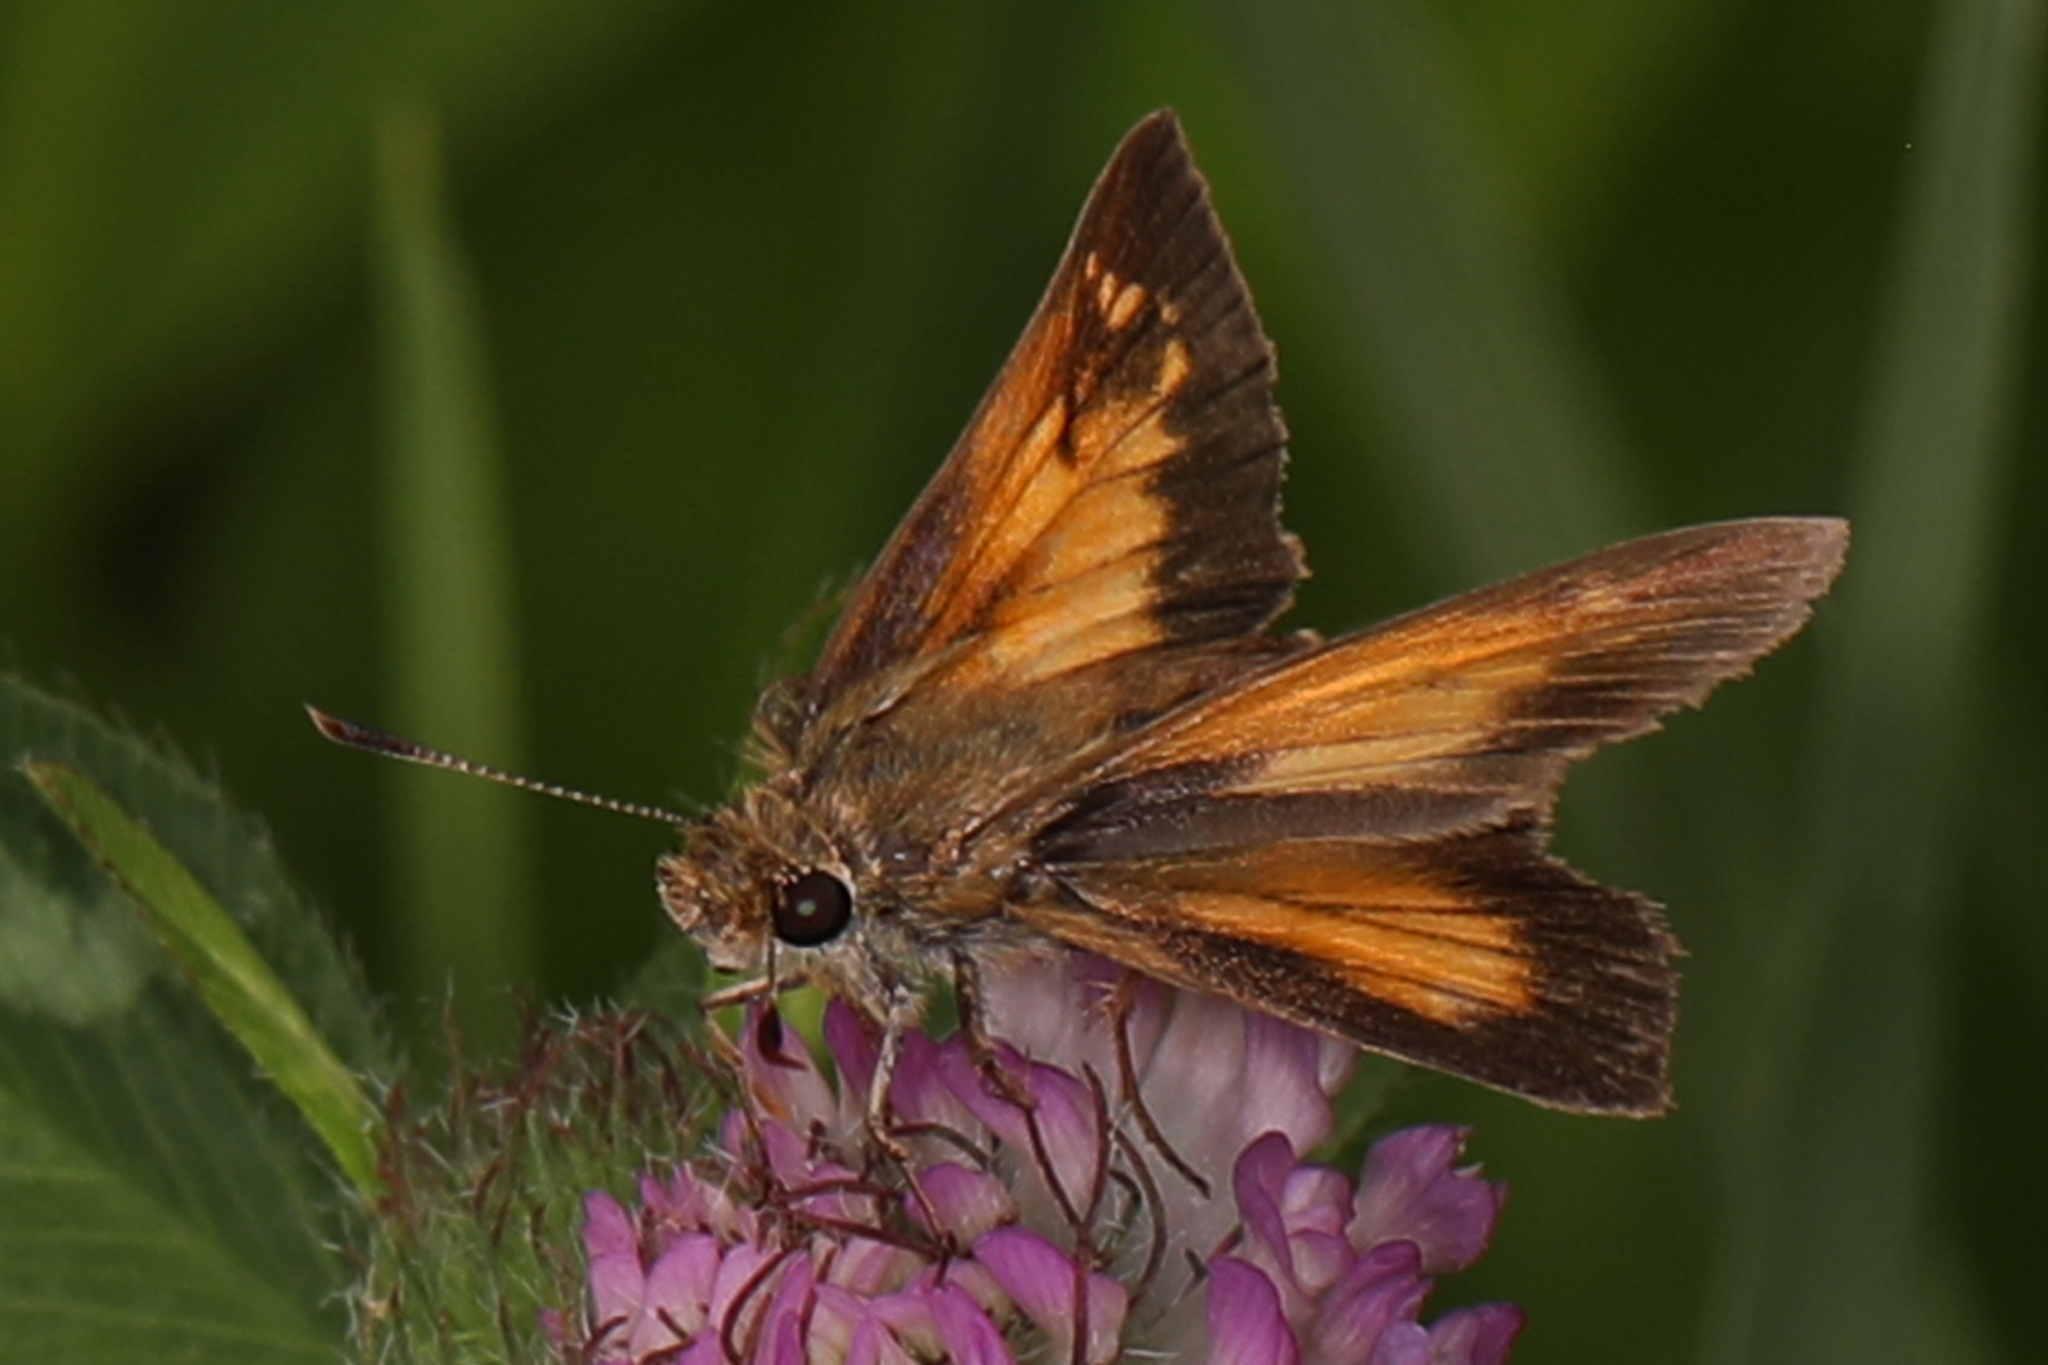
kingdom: Animalia
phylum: Arthropoda
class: Insecta
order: Lepidoptera
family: Hesperiidae
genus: Problema
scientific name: Problema bulenta
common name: Rare skipper
